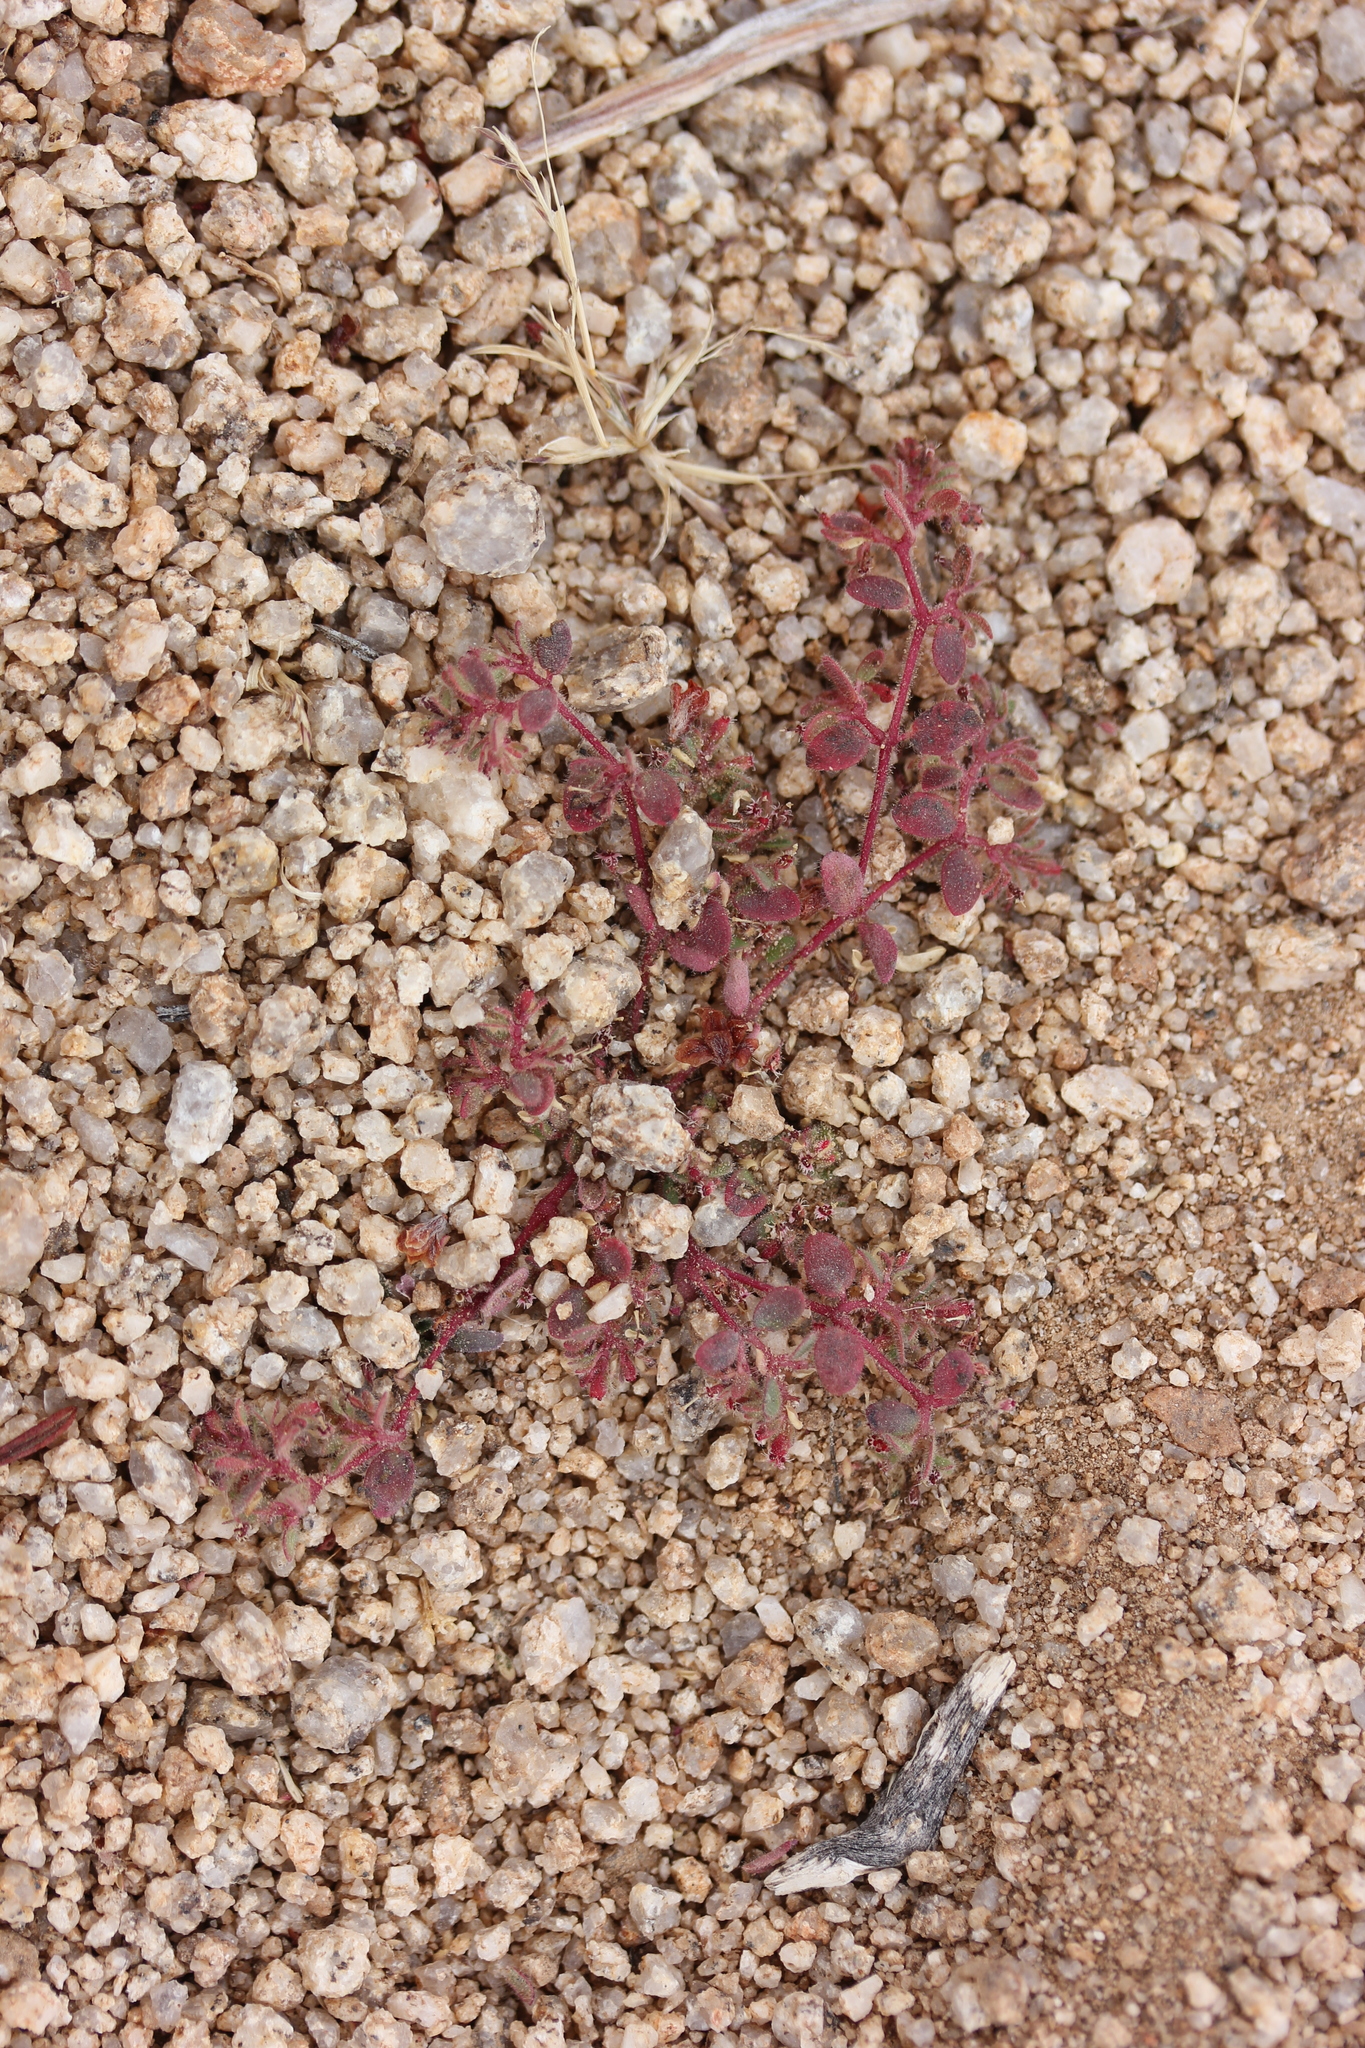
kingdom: Plantae
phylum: Tracheophyta
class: Magnoliopsida
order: Malpighiales
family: Euphorbiaceae
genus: Euphorbia
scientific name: Euphorbia setiloba
